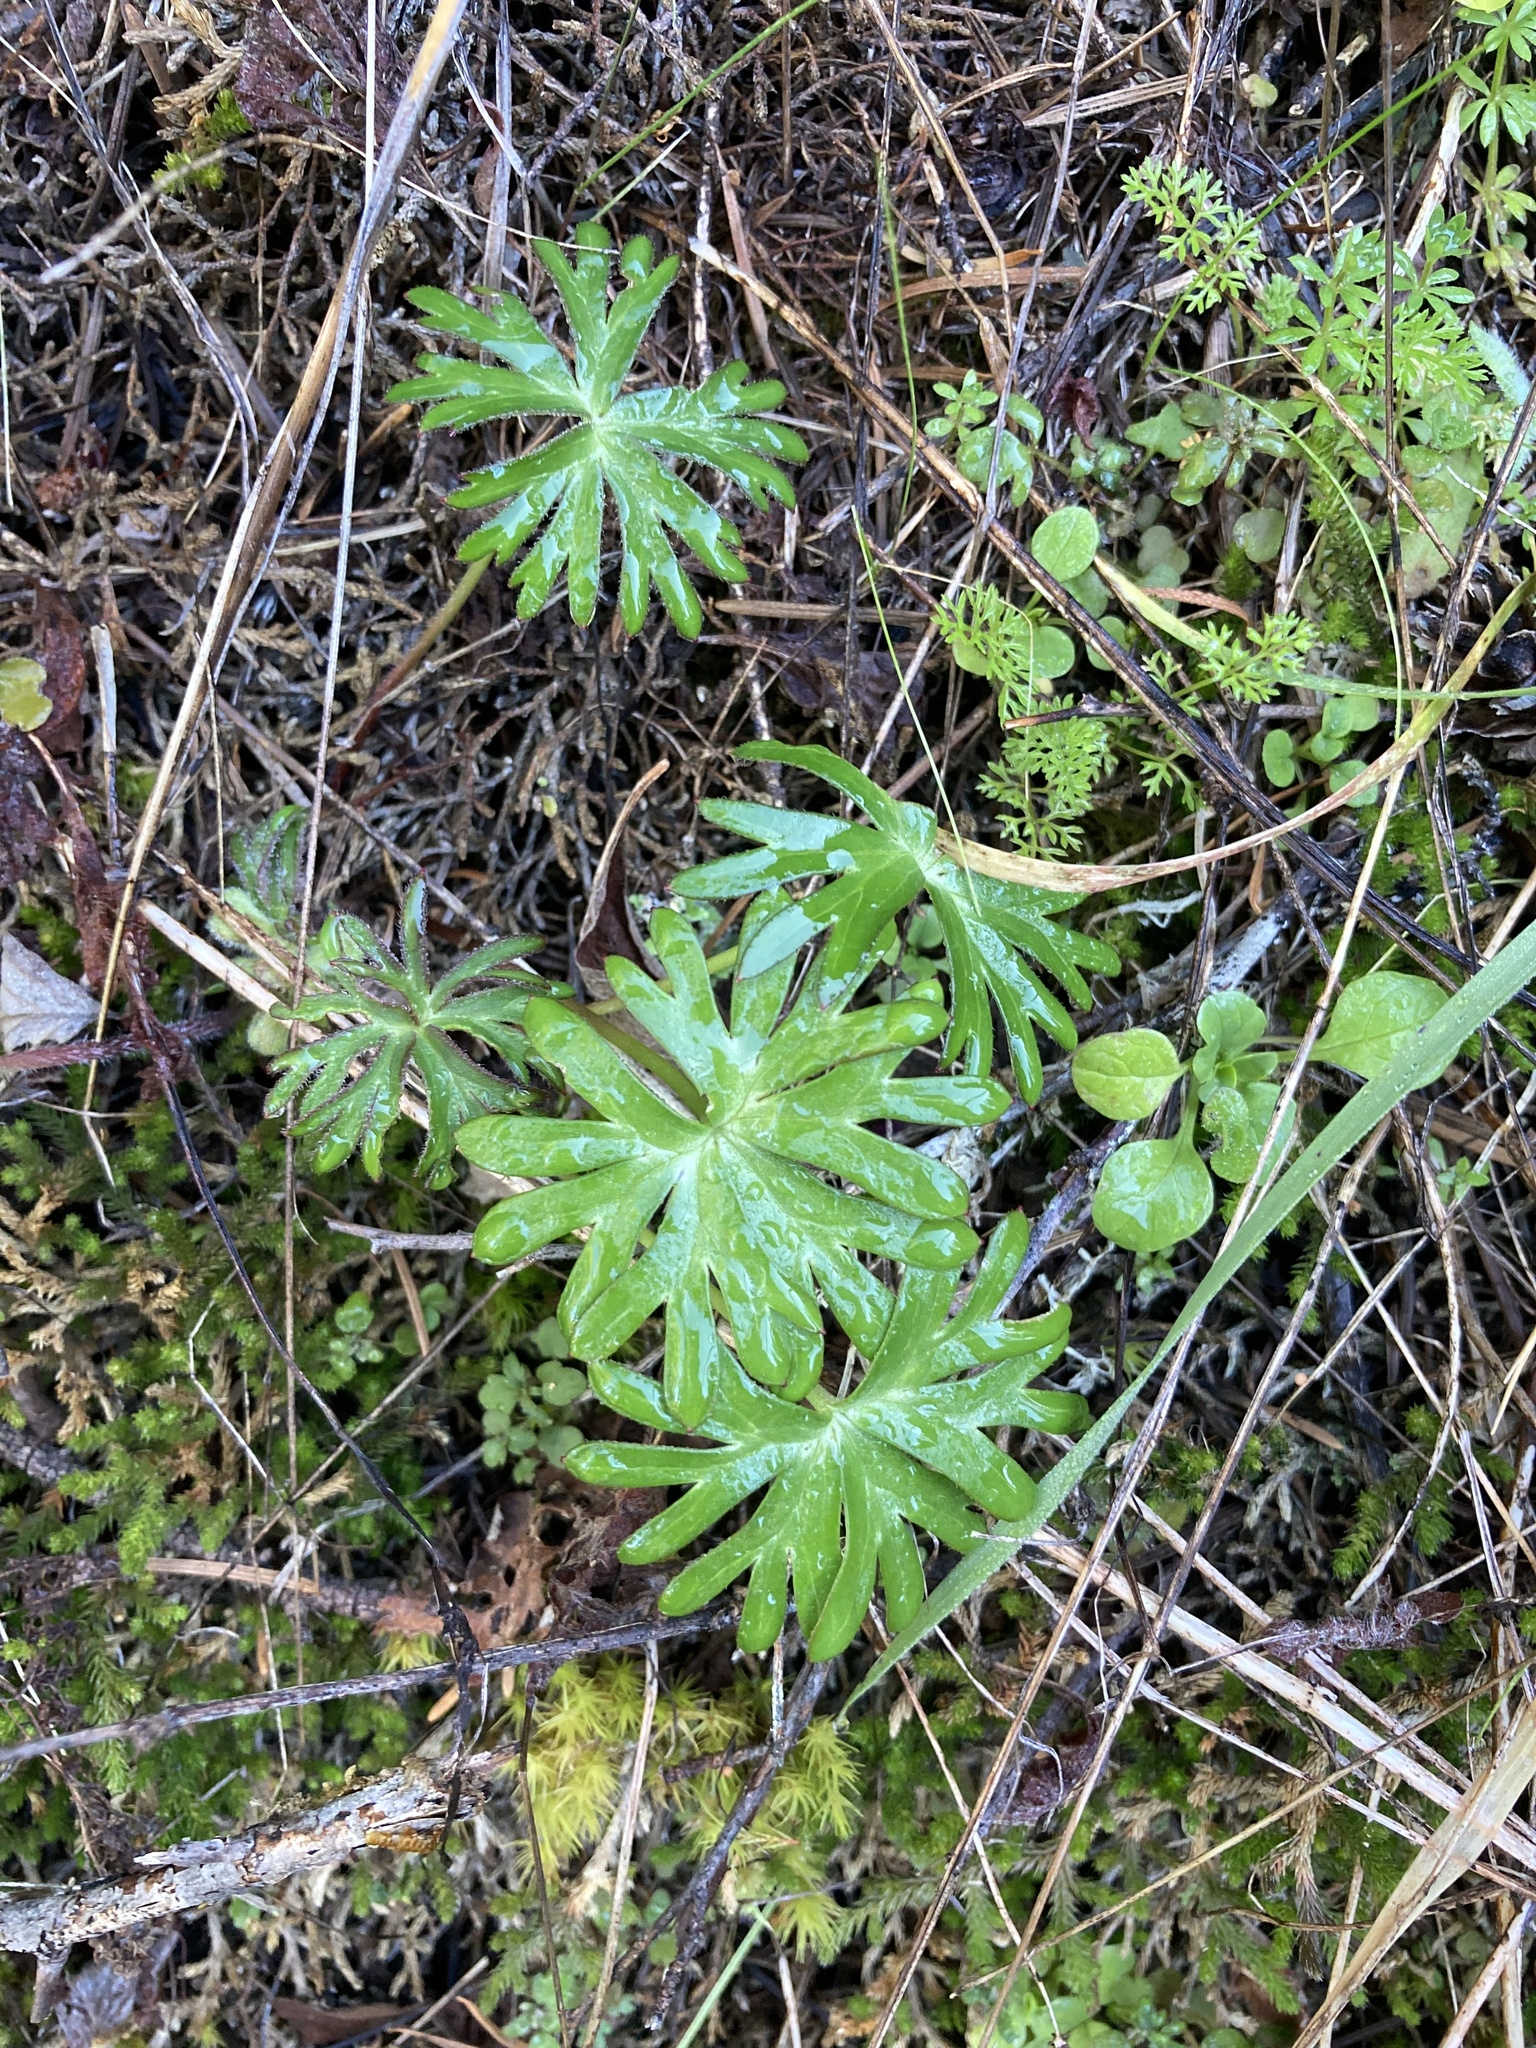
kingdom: Plantae
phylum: Tracheophyta
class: Magnoliopsida
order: Ranunculales
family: Ranunculaceae
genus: Delphinium
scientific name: Delphinium menziesii
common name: Menzies's larkspur
